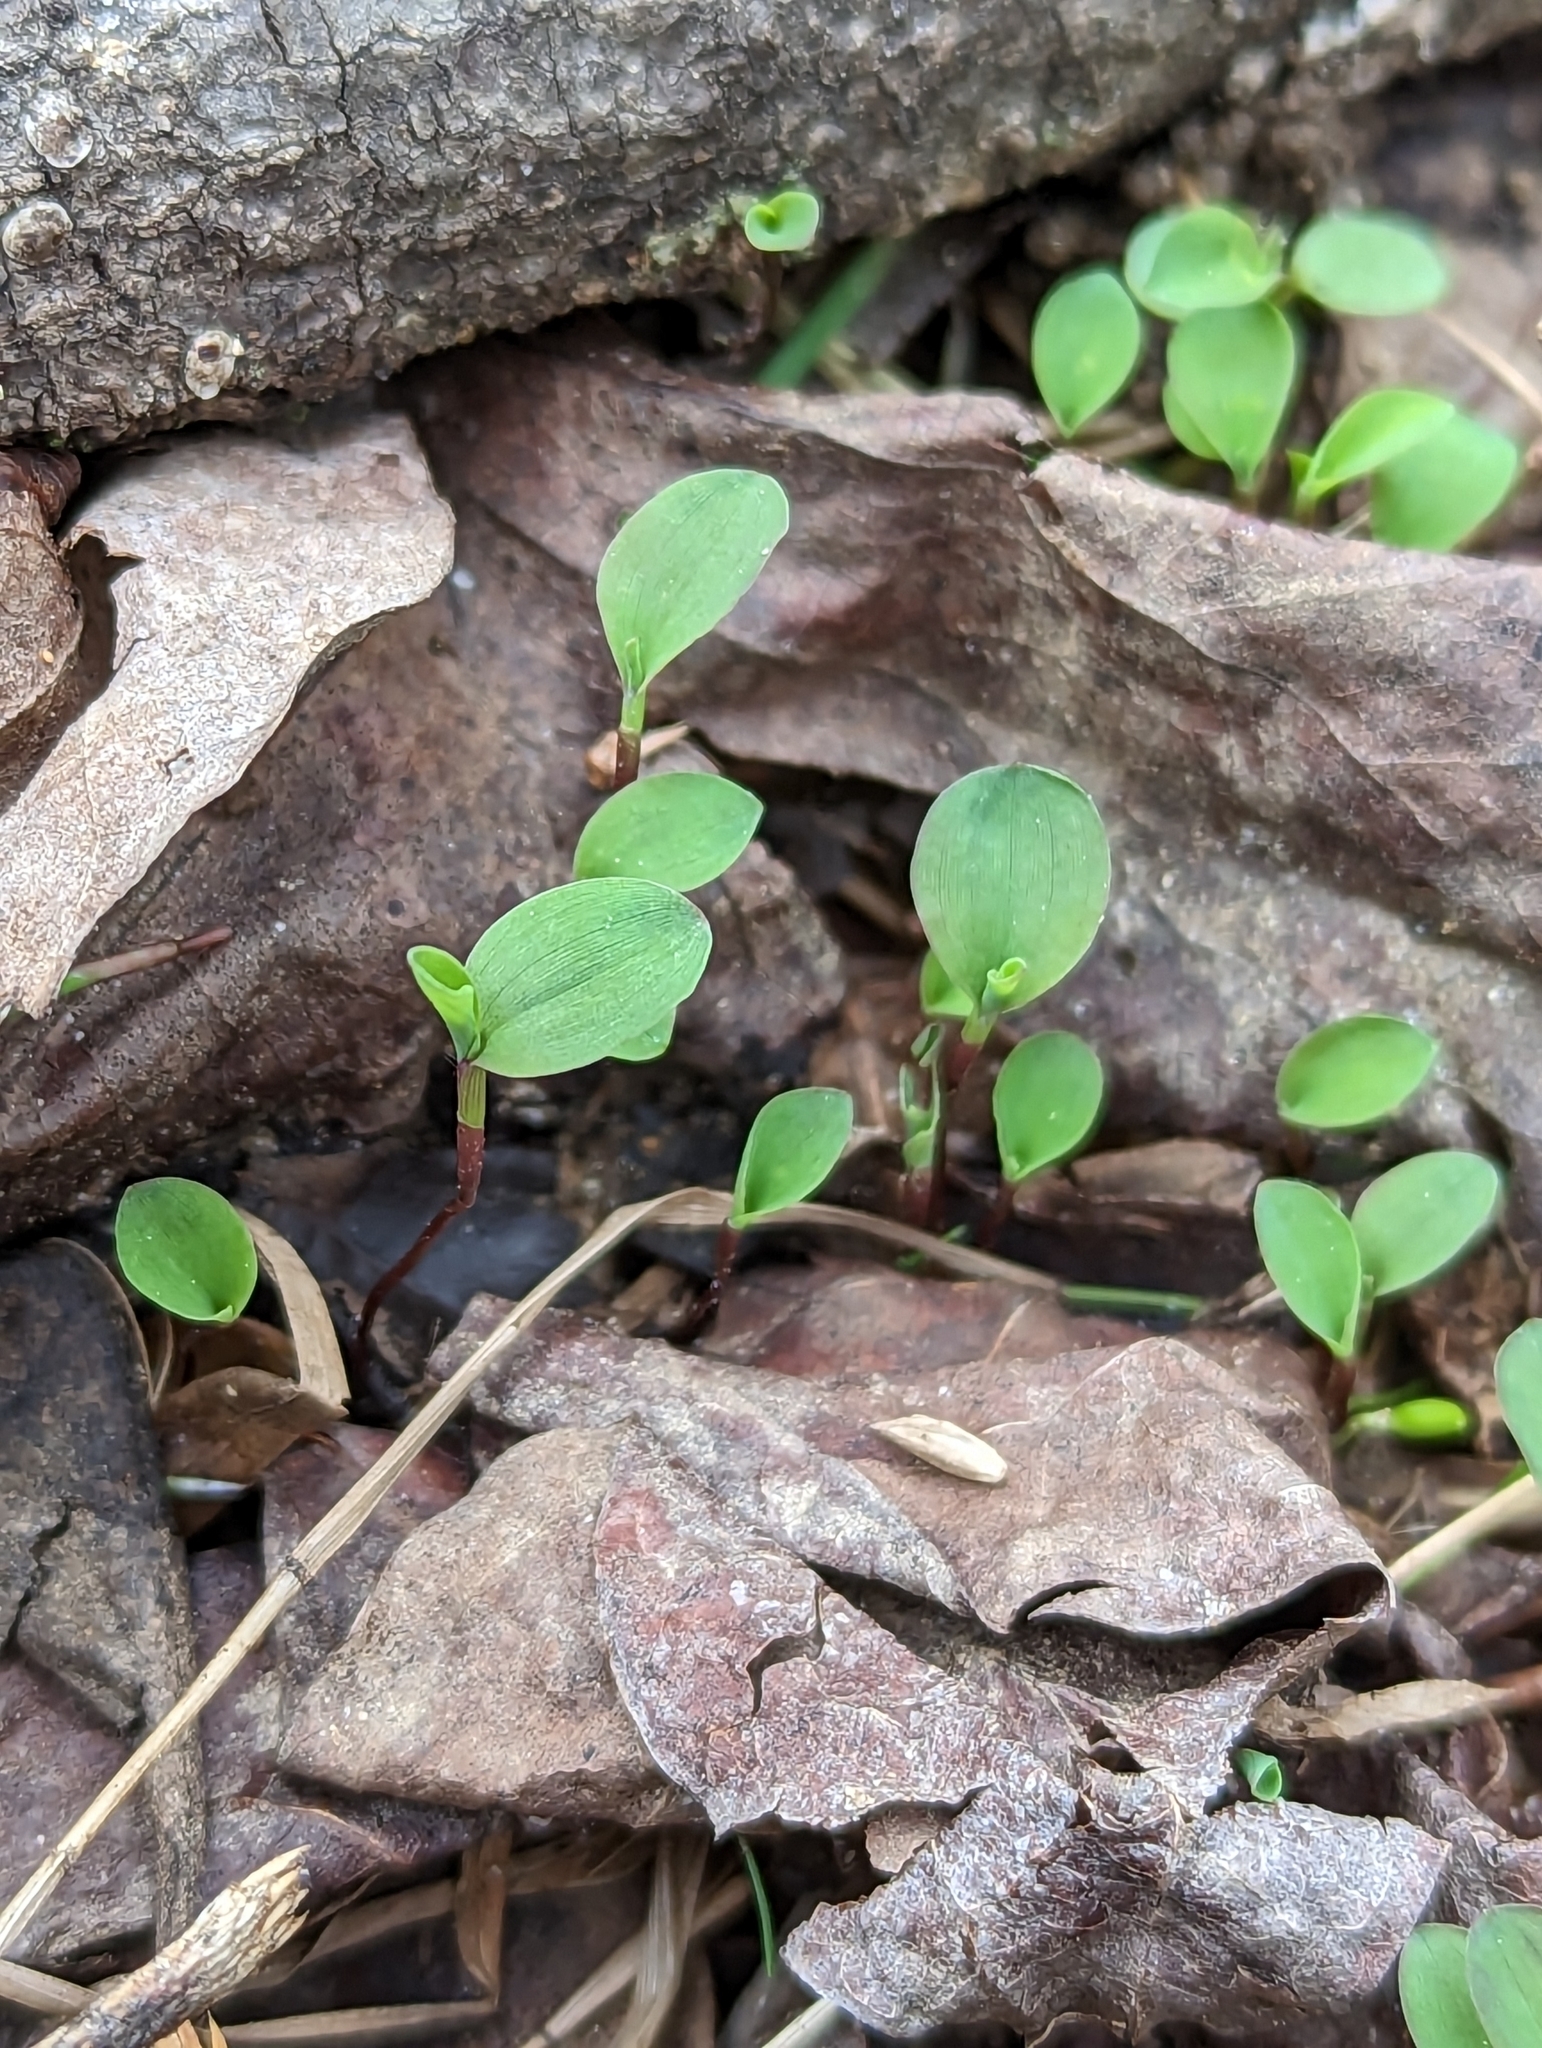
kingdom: Plantae
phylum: Tracheophyta
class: Liliopsida
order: Poales
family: Poaceae
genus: Microstegium
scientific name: Microstegium vimineum
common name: Japanese stiltgrass
